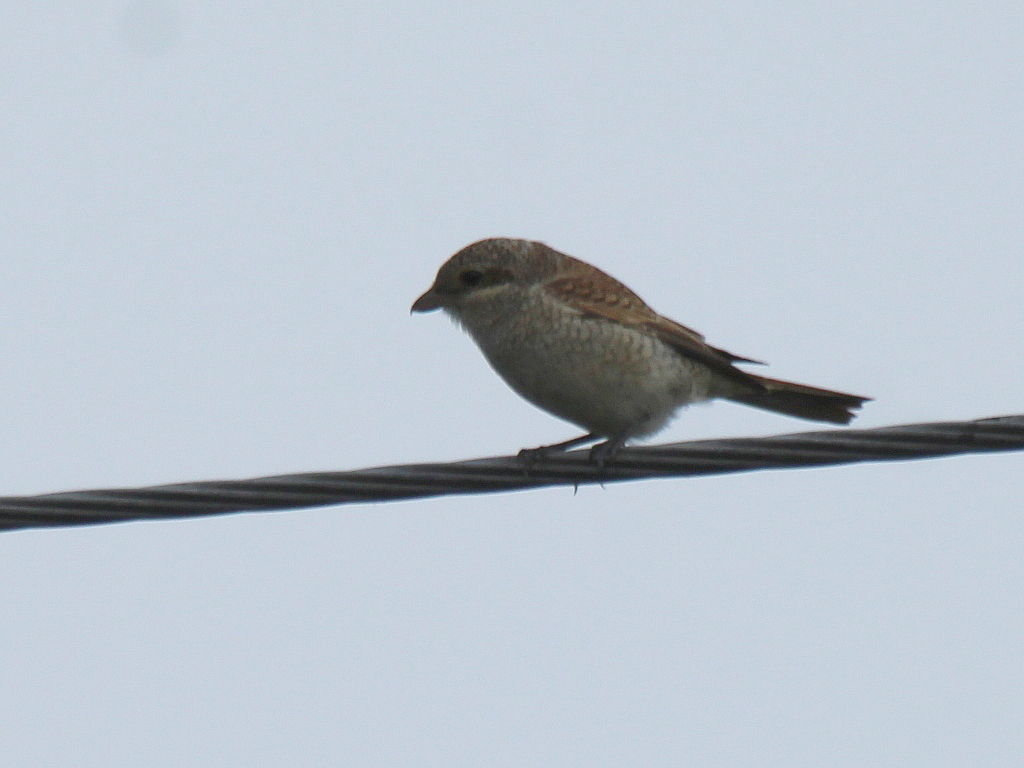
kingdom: Animalia
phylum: Chordata
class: Aves
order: Passeriformes
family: Laniidae
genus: Lanius
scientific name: Lanius collurio
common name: Red-backed shrike
